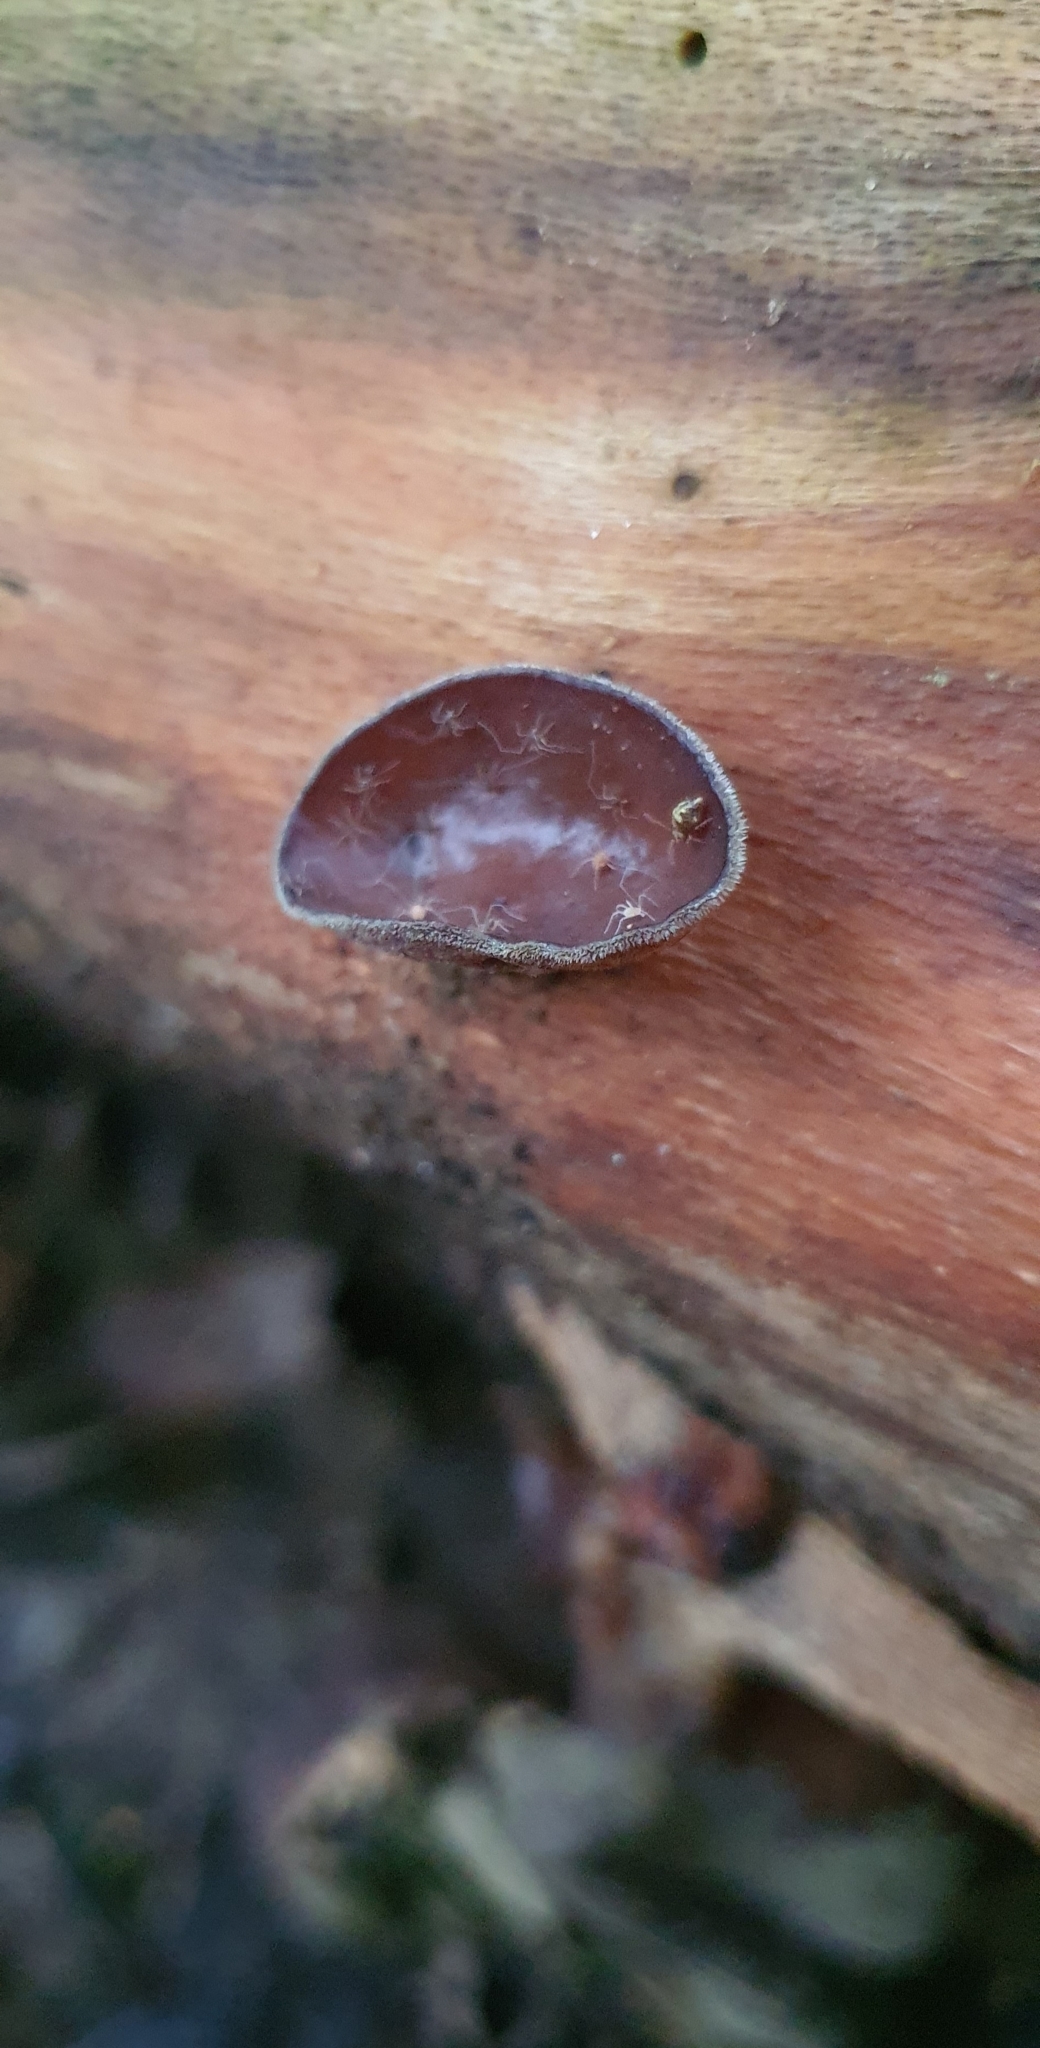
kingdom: Fungi
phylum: Basidiomycota
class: Agaricomycetes
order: Auriculariales
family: Auriculariaceae
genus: Auricularia
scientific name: Auricularia cornea
